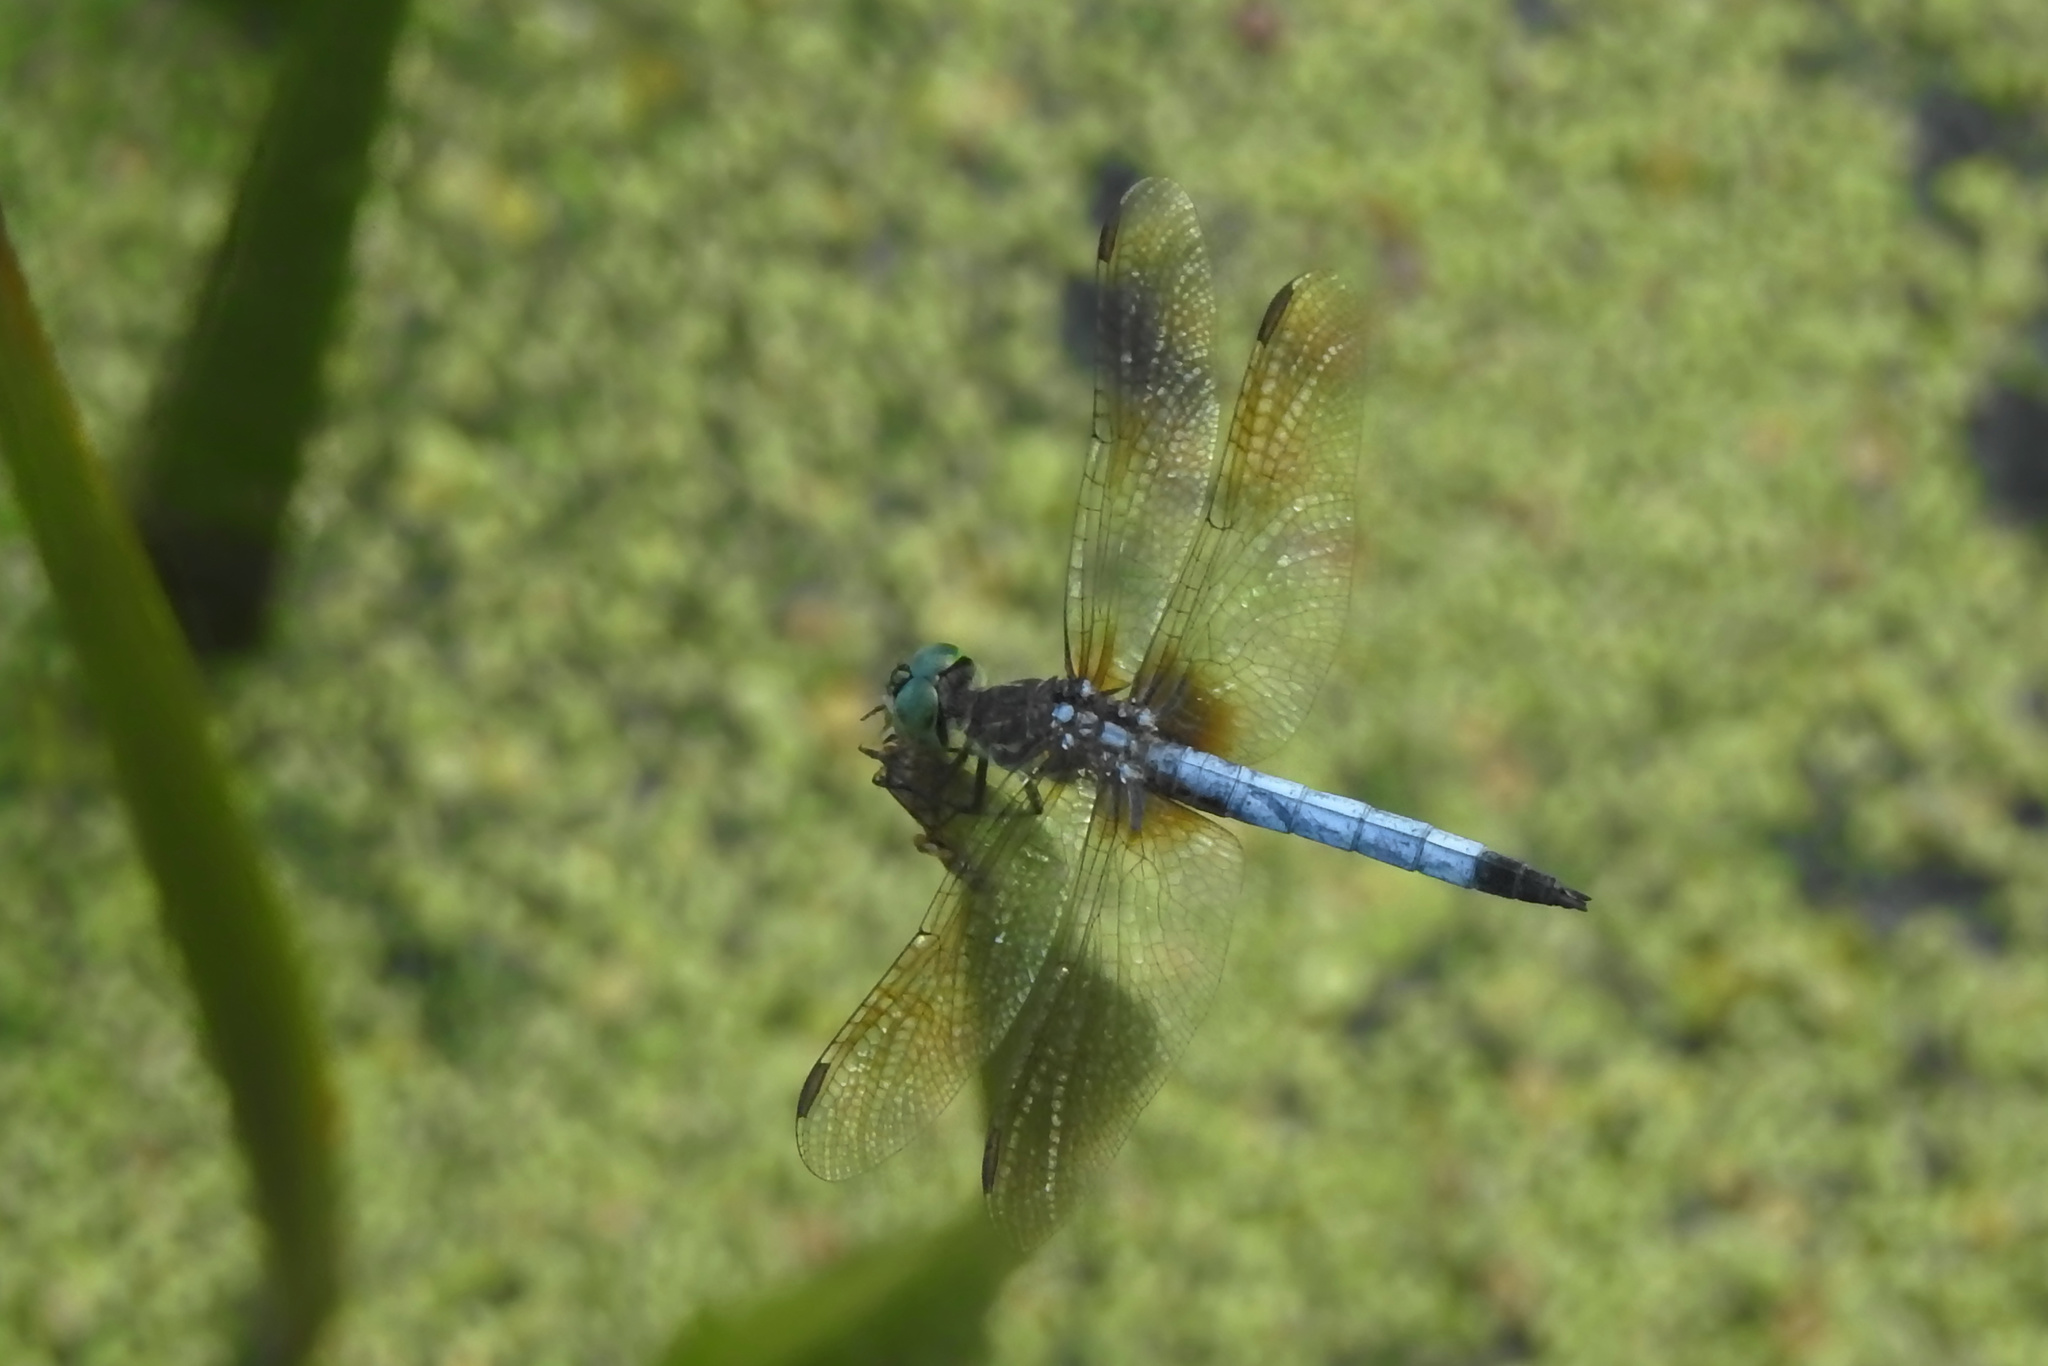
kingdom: Animalia
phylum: Arthropoda
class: Insecta
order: Odonata
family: Libellulidae
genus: Pachydiplax
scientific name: Pachydiplax longipennis
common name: Blue dasher
